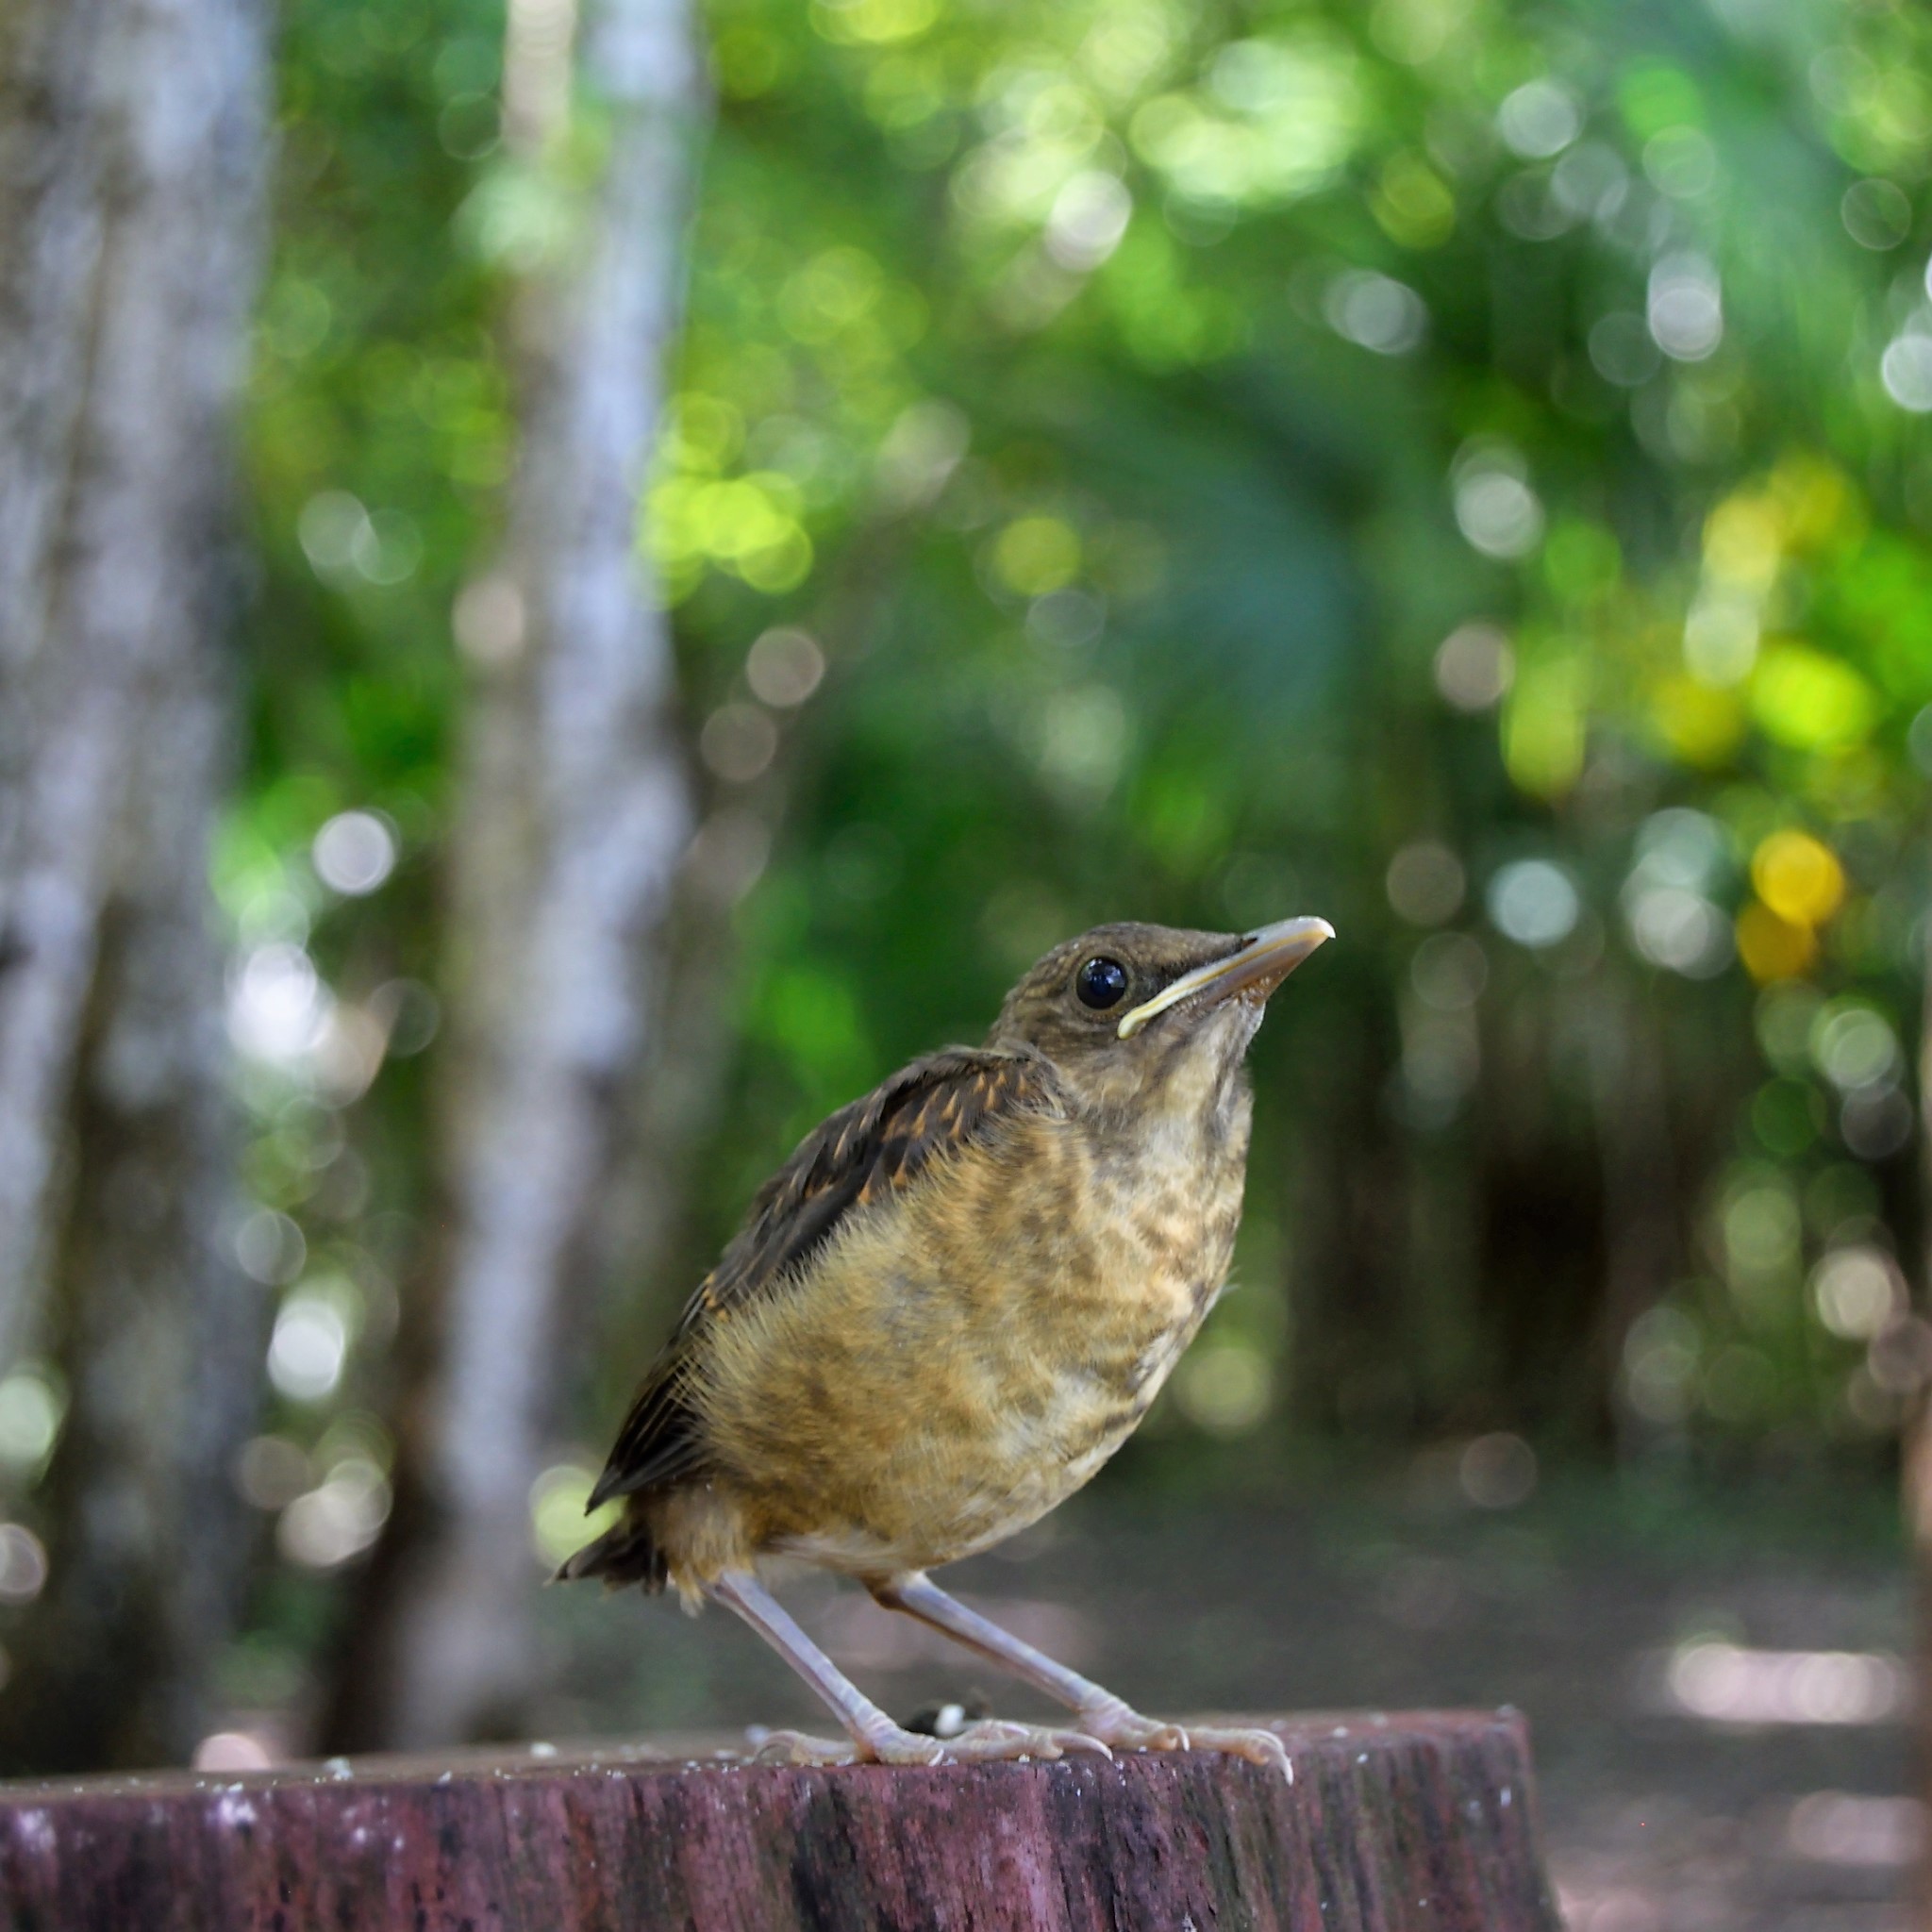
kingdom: Animalia
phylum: Chordata
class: Aves
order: Passeriformes
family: Turdidae
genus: Turdus
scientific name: Turdus grayi
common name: Clay-colored thrush
